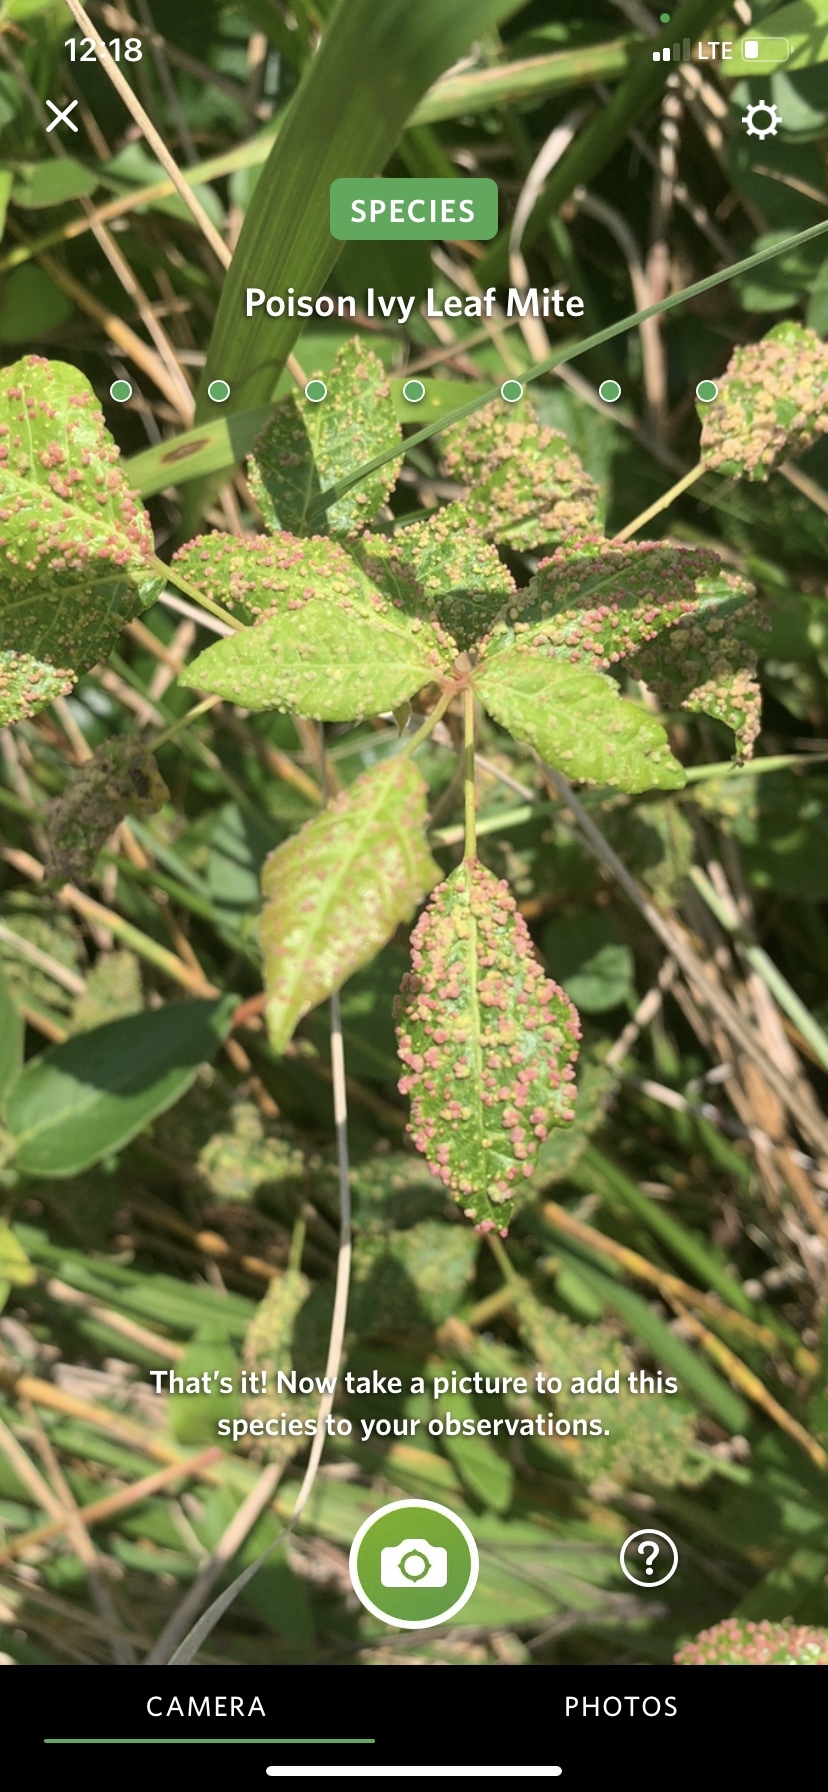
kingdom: Animalia
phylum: Arthropoda
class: Arachnida
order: Trombidiformes
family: Eriophyidae
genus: Aculops
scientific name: Aculops
